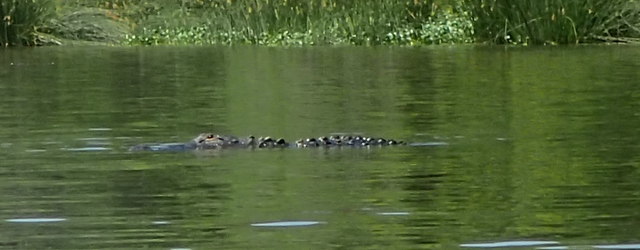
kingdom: Animalia
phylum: Chordata
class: Crocodylia
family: Alligatoridae
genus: Alligator
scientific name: Alligator mississippiensis
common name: American alligator
